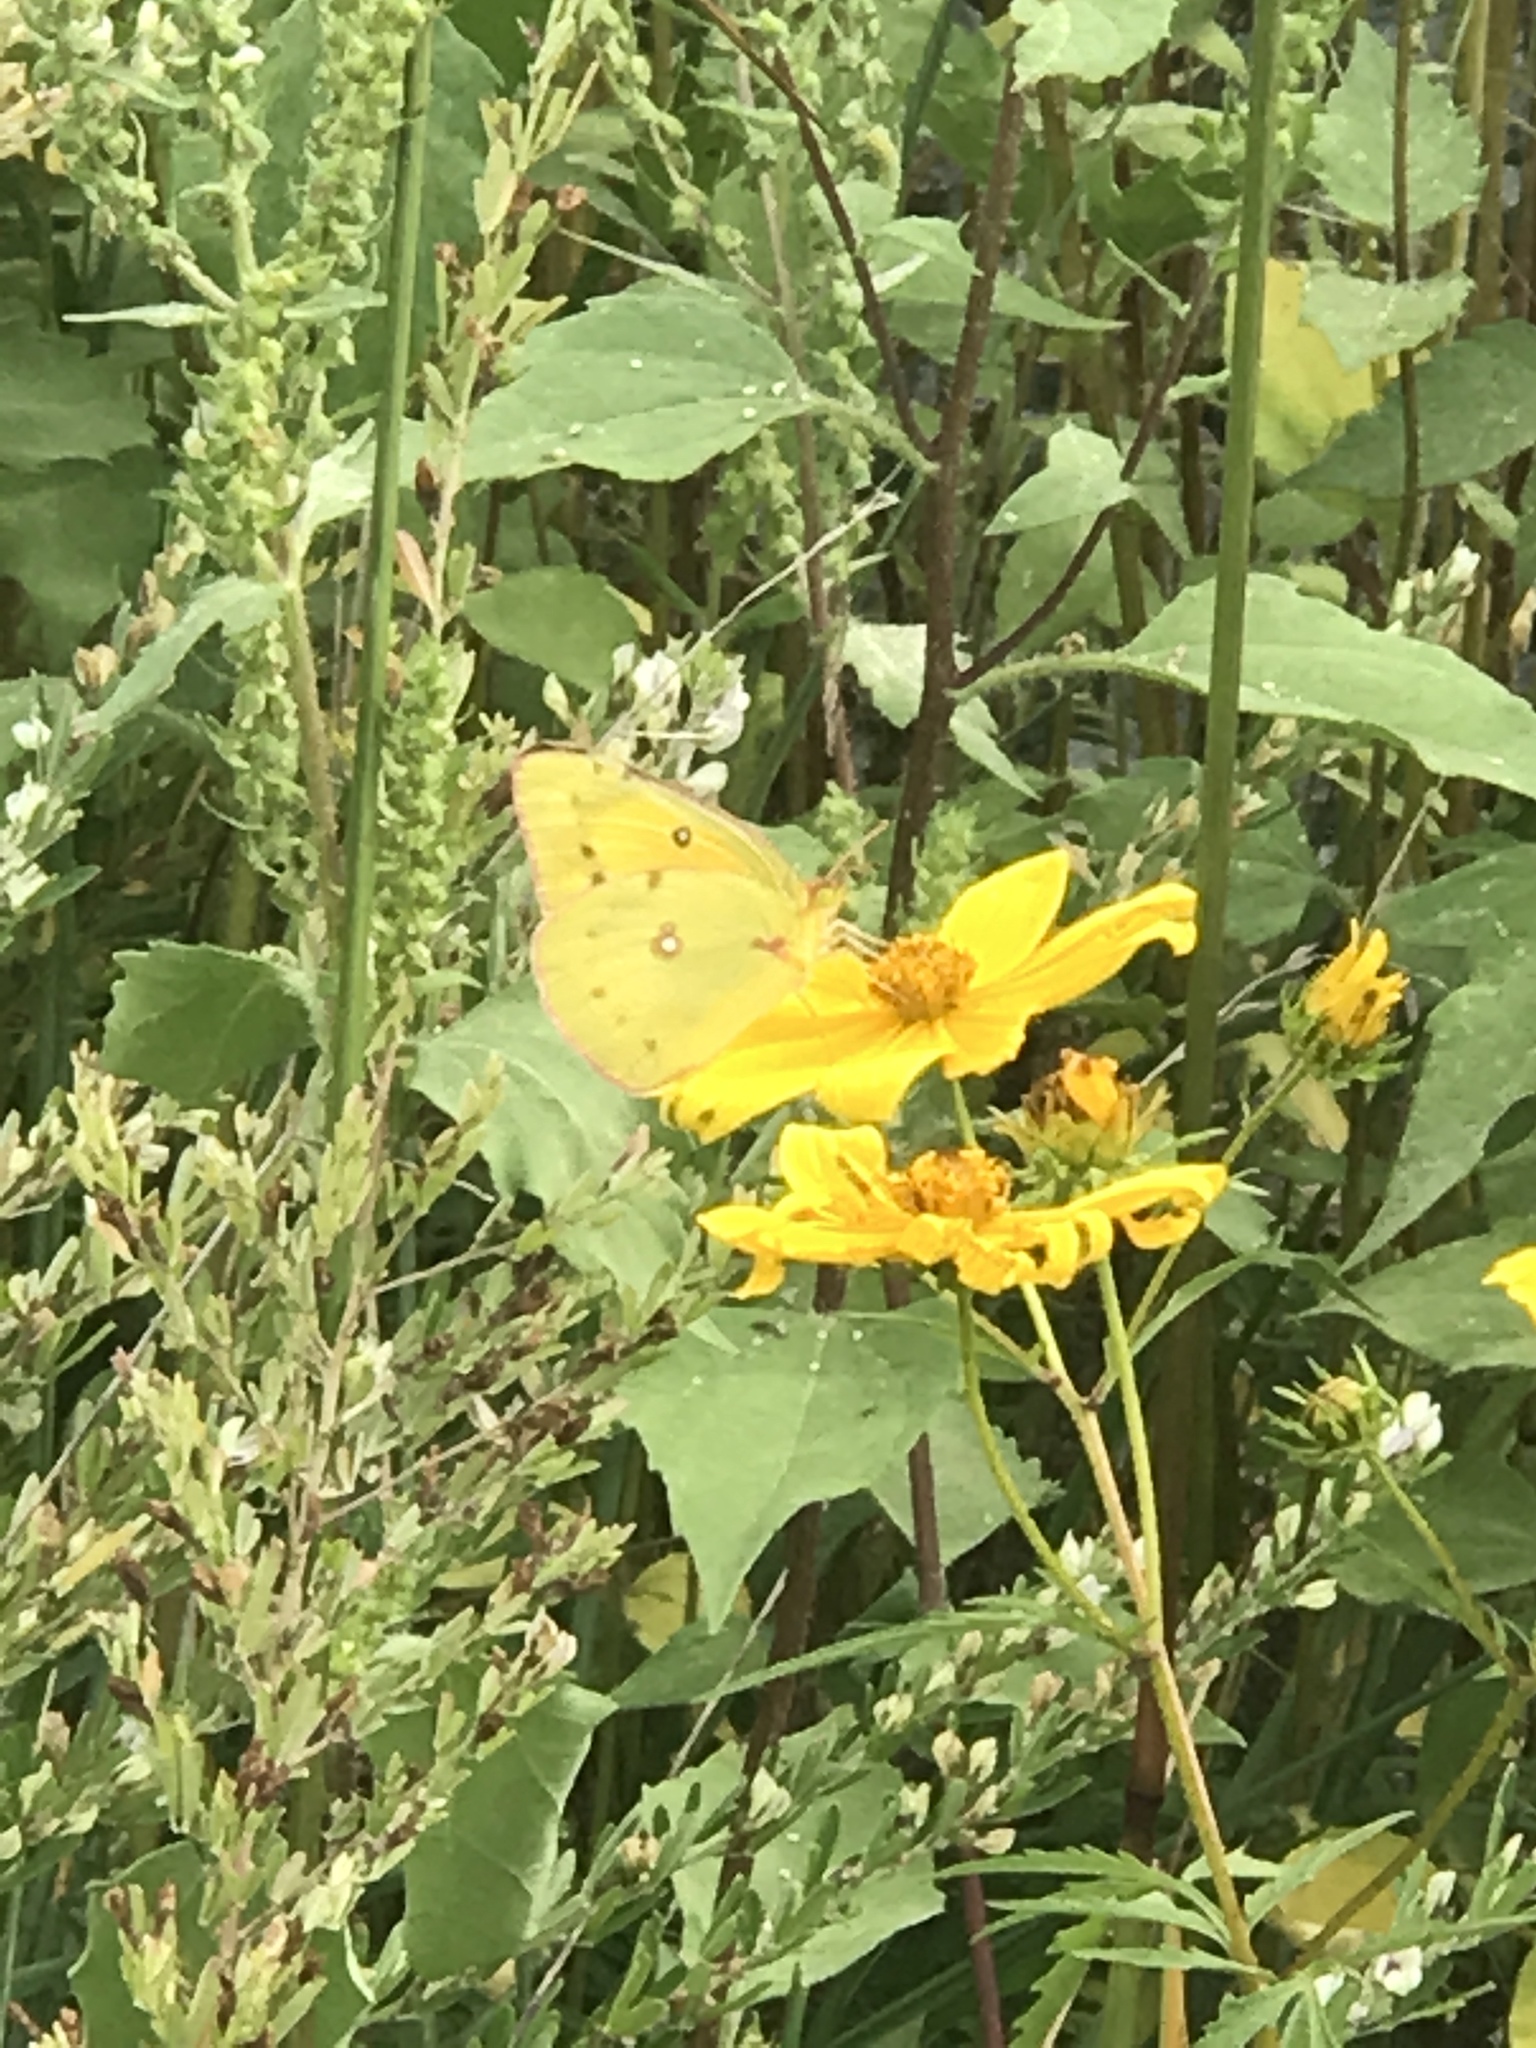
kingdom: Animalia
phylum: Arthropoda
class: Insecta
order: Lepidoptera
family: Pieridae
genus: Colias
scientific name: Colias eurytheme
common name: Alfalfa butterfly
